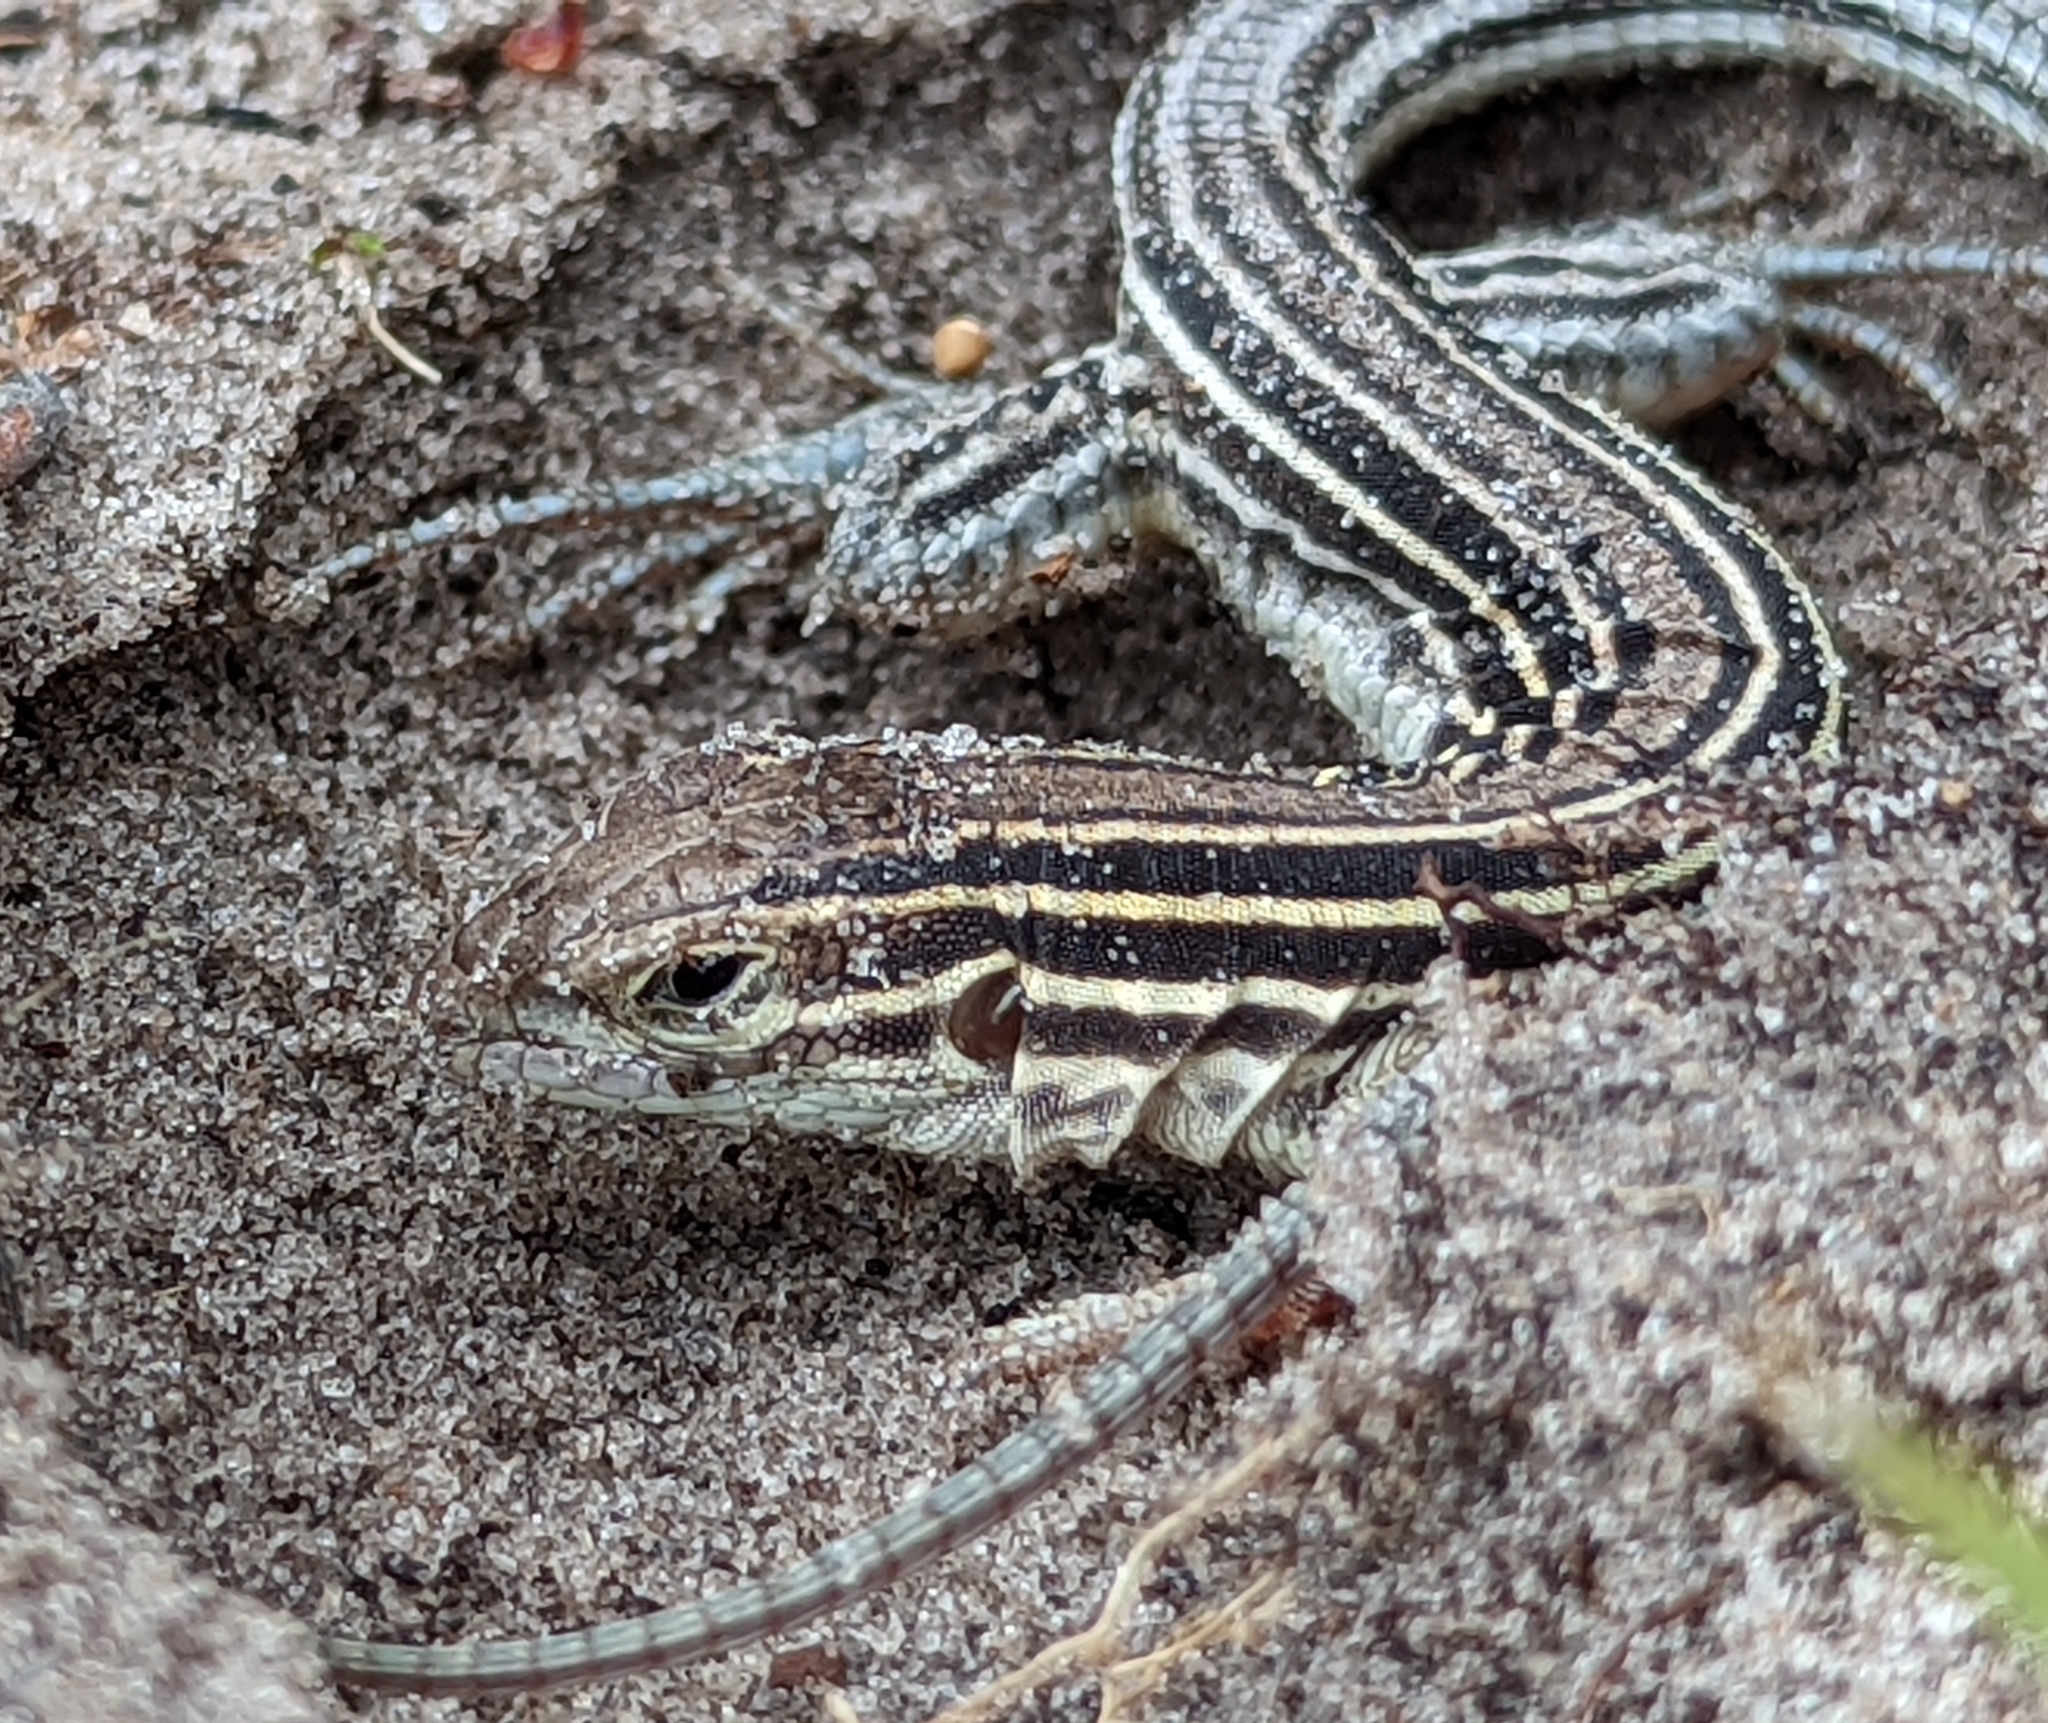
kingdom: Animalia
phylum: Chordata
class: Squamata
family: Teiidae
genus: Aspidoscelis
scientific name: Aspidoscelis sexlineatus
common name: Six-lined racerunner
